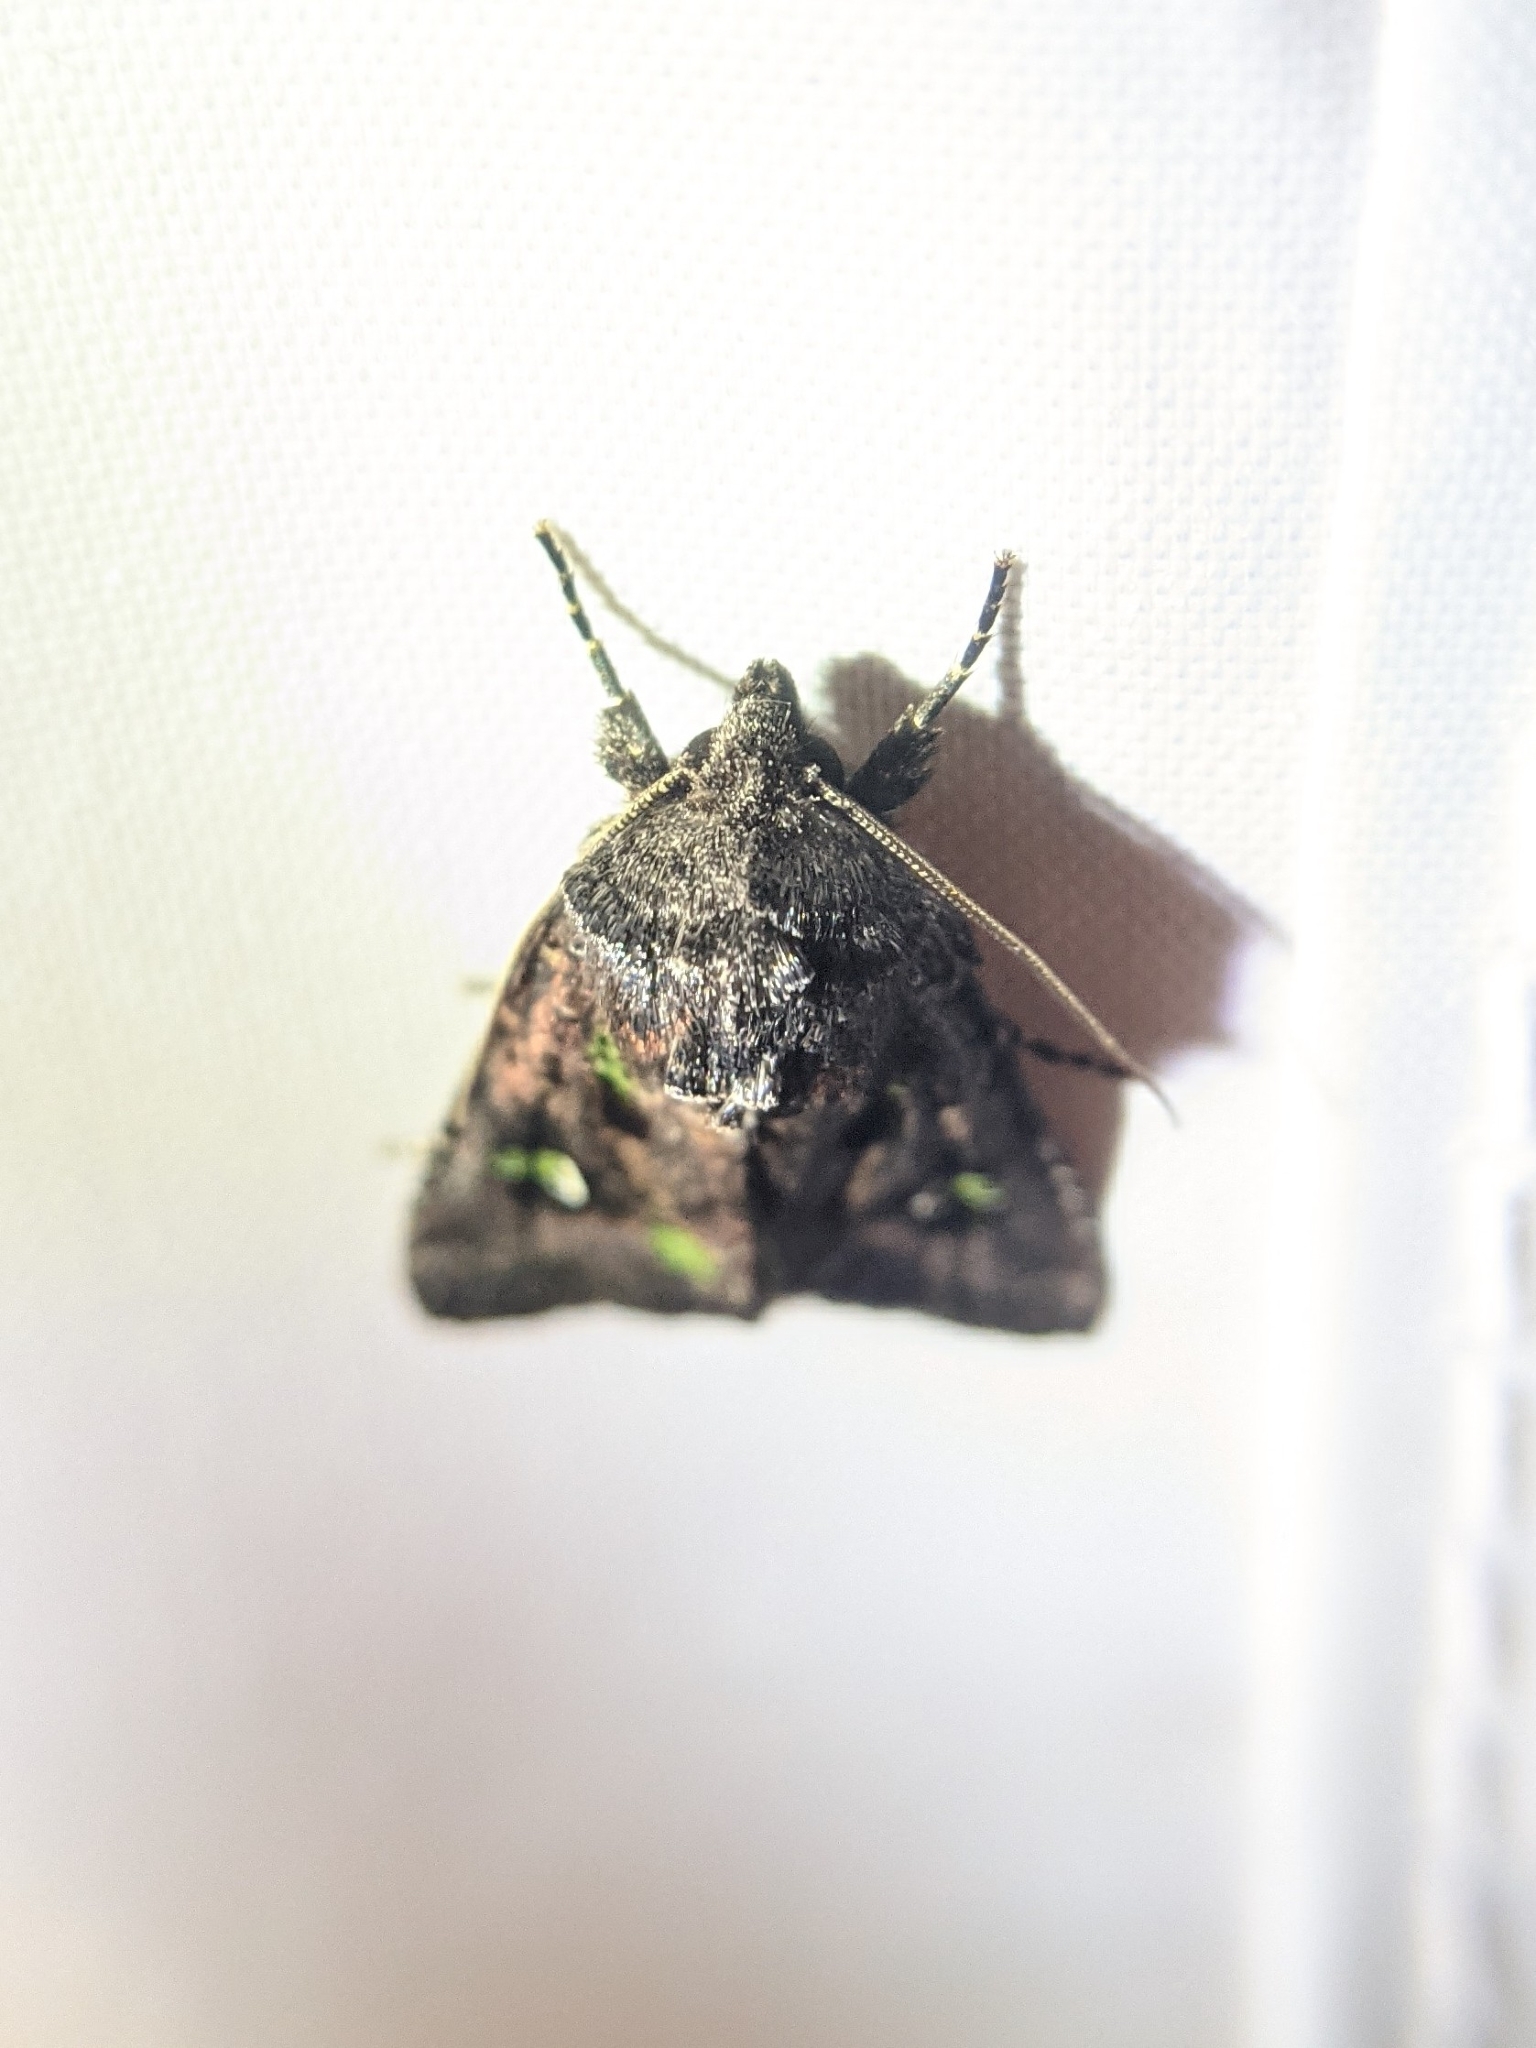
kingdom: Animalia
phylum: Arthropoda
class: Insecta
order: Lepidoptera
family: Noctuidae
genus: Lacinipolia
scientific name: Lacinipolia renigera
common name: Kidney-spotted minor
